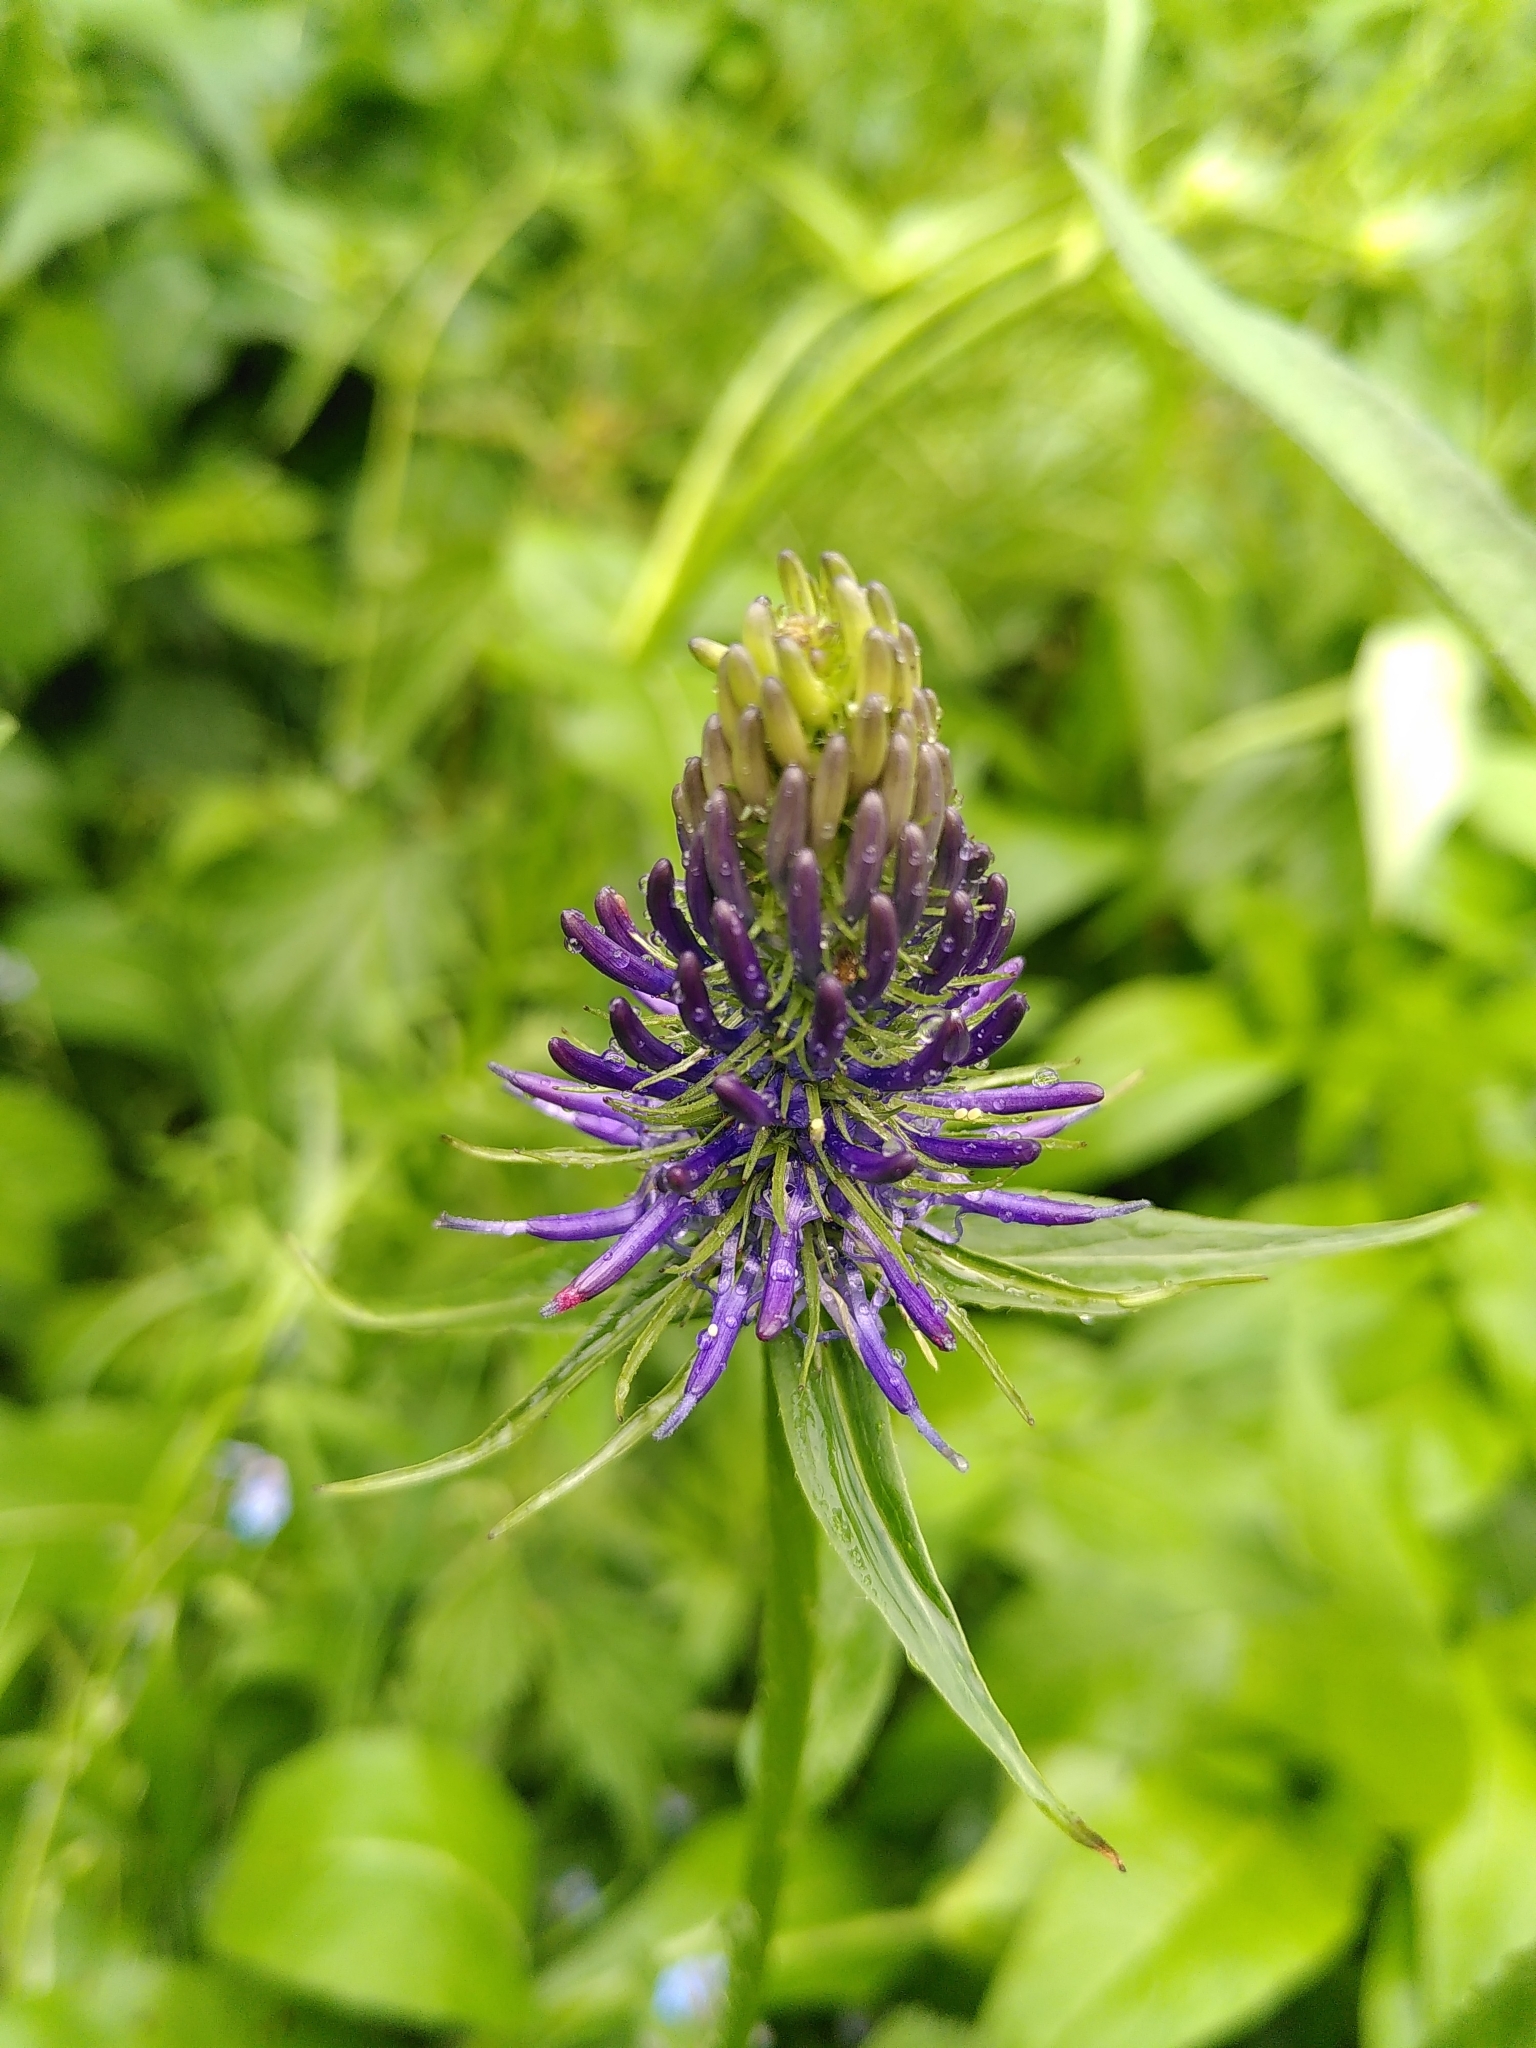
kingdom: Plantae
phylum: Tracheophyta
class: Magnoliopsida
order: Asterales
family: Campanulaceae
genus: Phyteuma
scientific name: Phyteuma spicatum
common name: Spiked rampion
